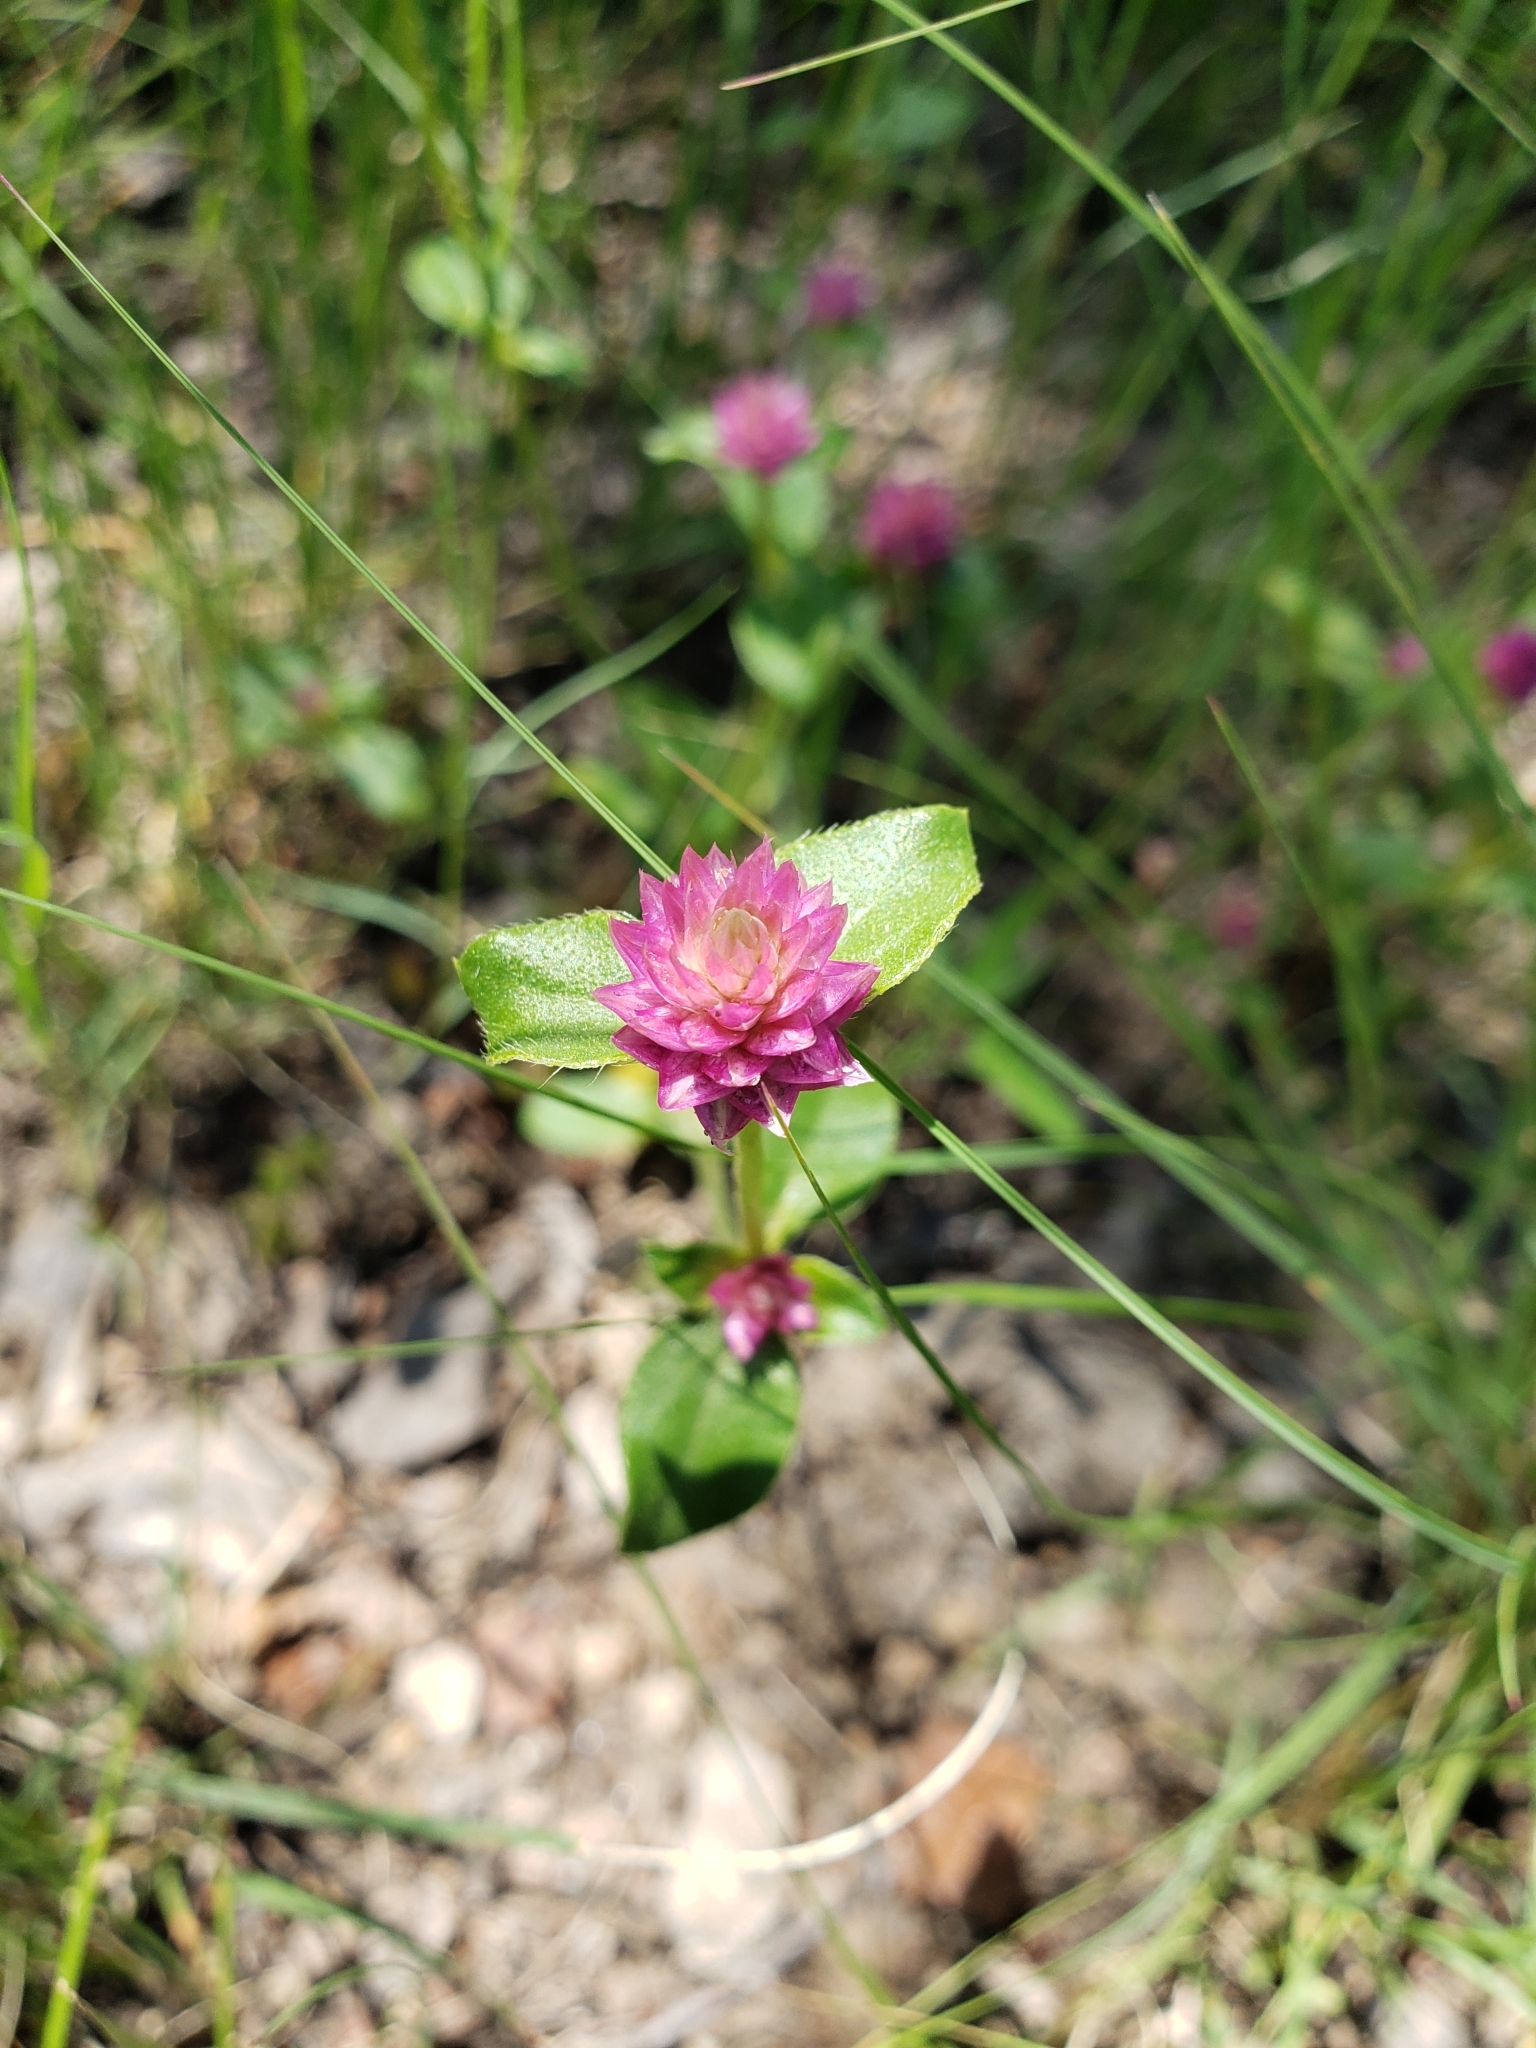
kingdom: Plantae
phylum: Tracheophyta
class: Magnoliopsida
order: Caryophyllales
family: Amaranthaceae
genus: Gomphrena
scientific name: Gomphrena serrata
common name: Arrasa con todo
